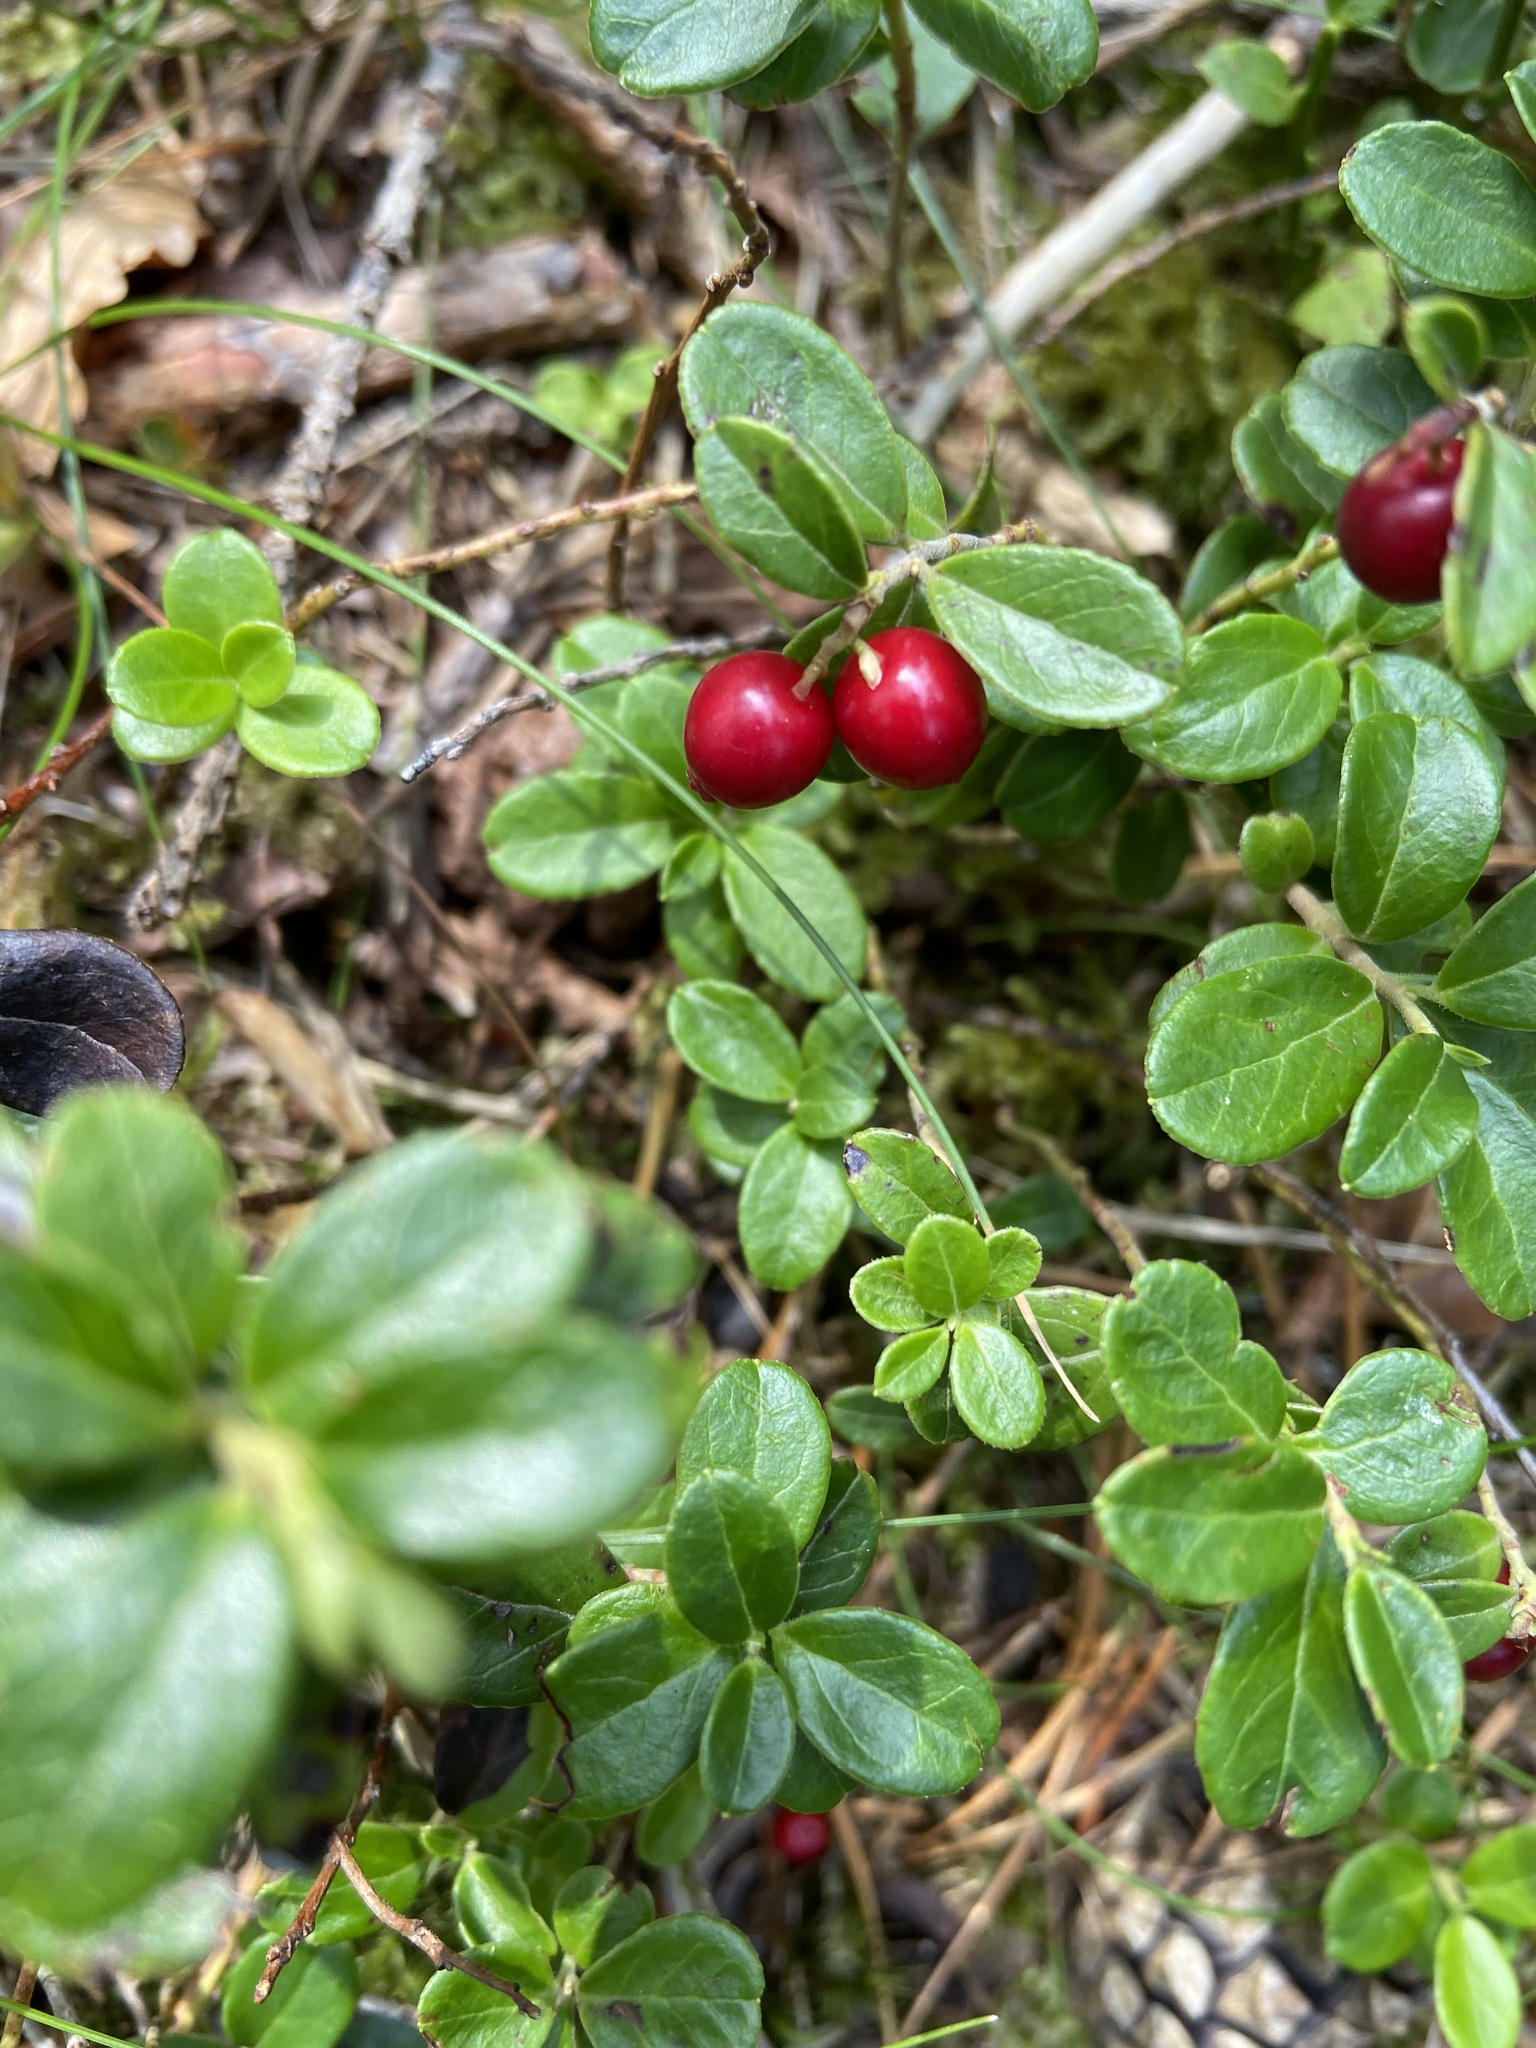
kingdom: Plantae
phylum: Tracheophyta
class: Magnoliopsida
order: Ericales
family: Ericaceae
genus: Vaccinium
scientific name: Vaccinium vitis-idaea
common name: Cowberry
